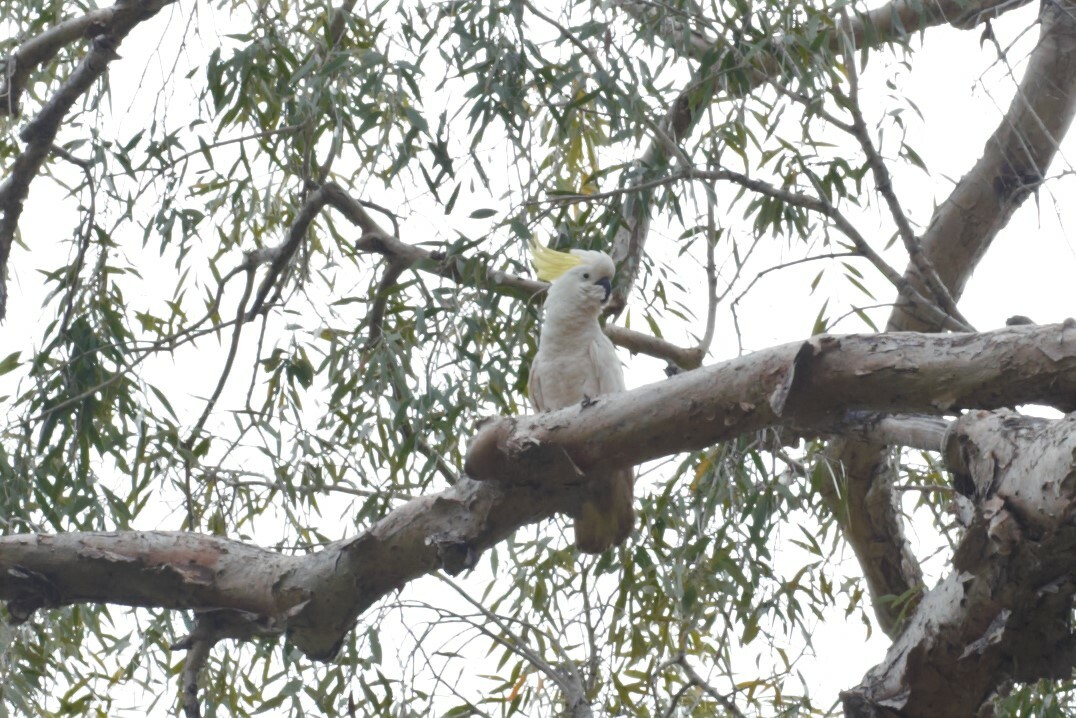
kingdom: Animalia
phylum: Chordata
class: Aves
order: Psittaciformes
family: Psittacidae
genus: Cacatua
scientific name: Cacatua galerita
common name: Sulphur-crested cockatoo
